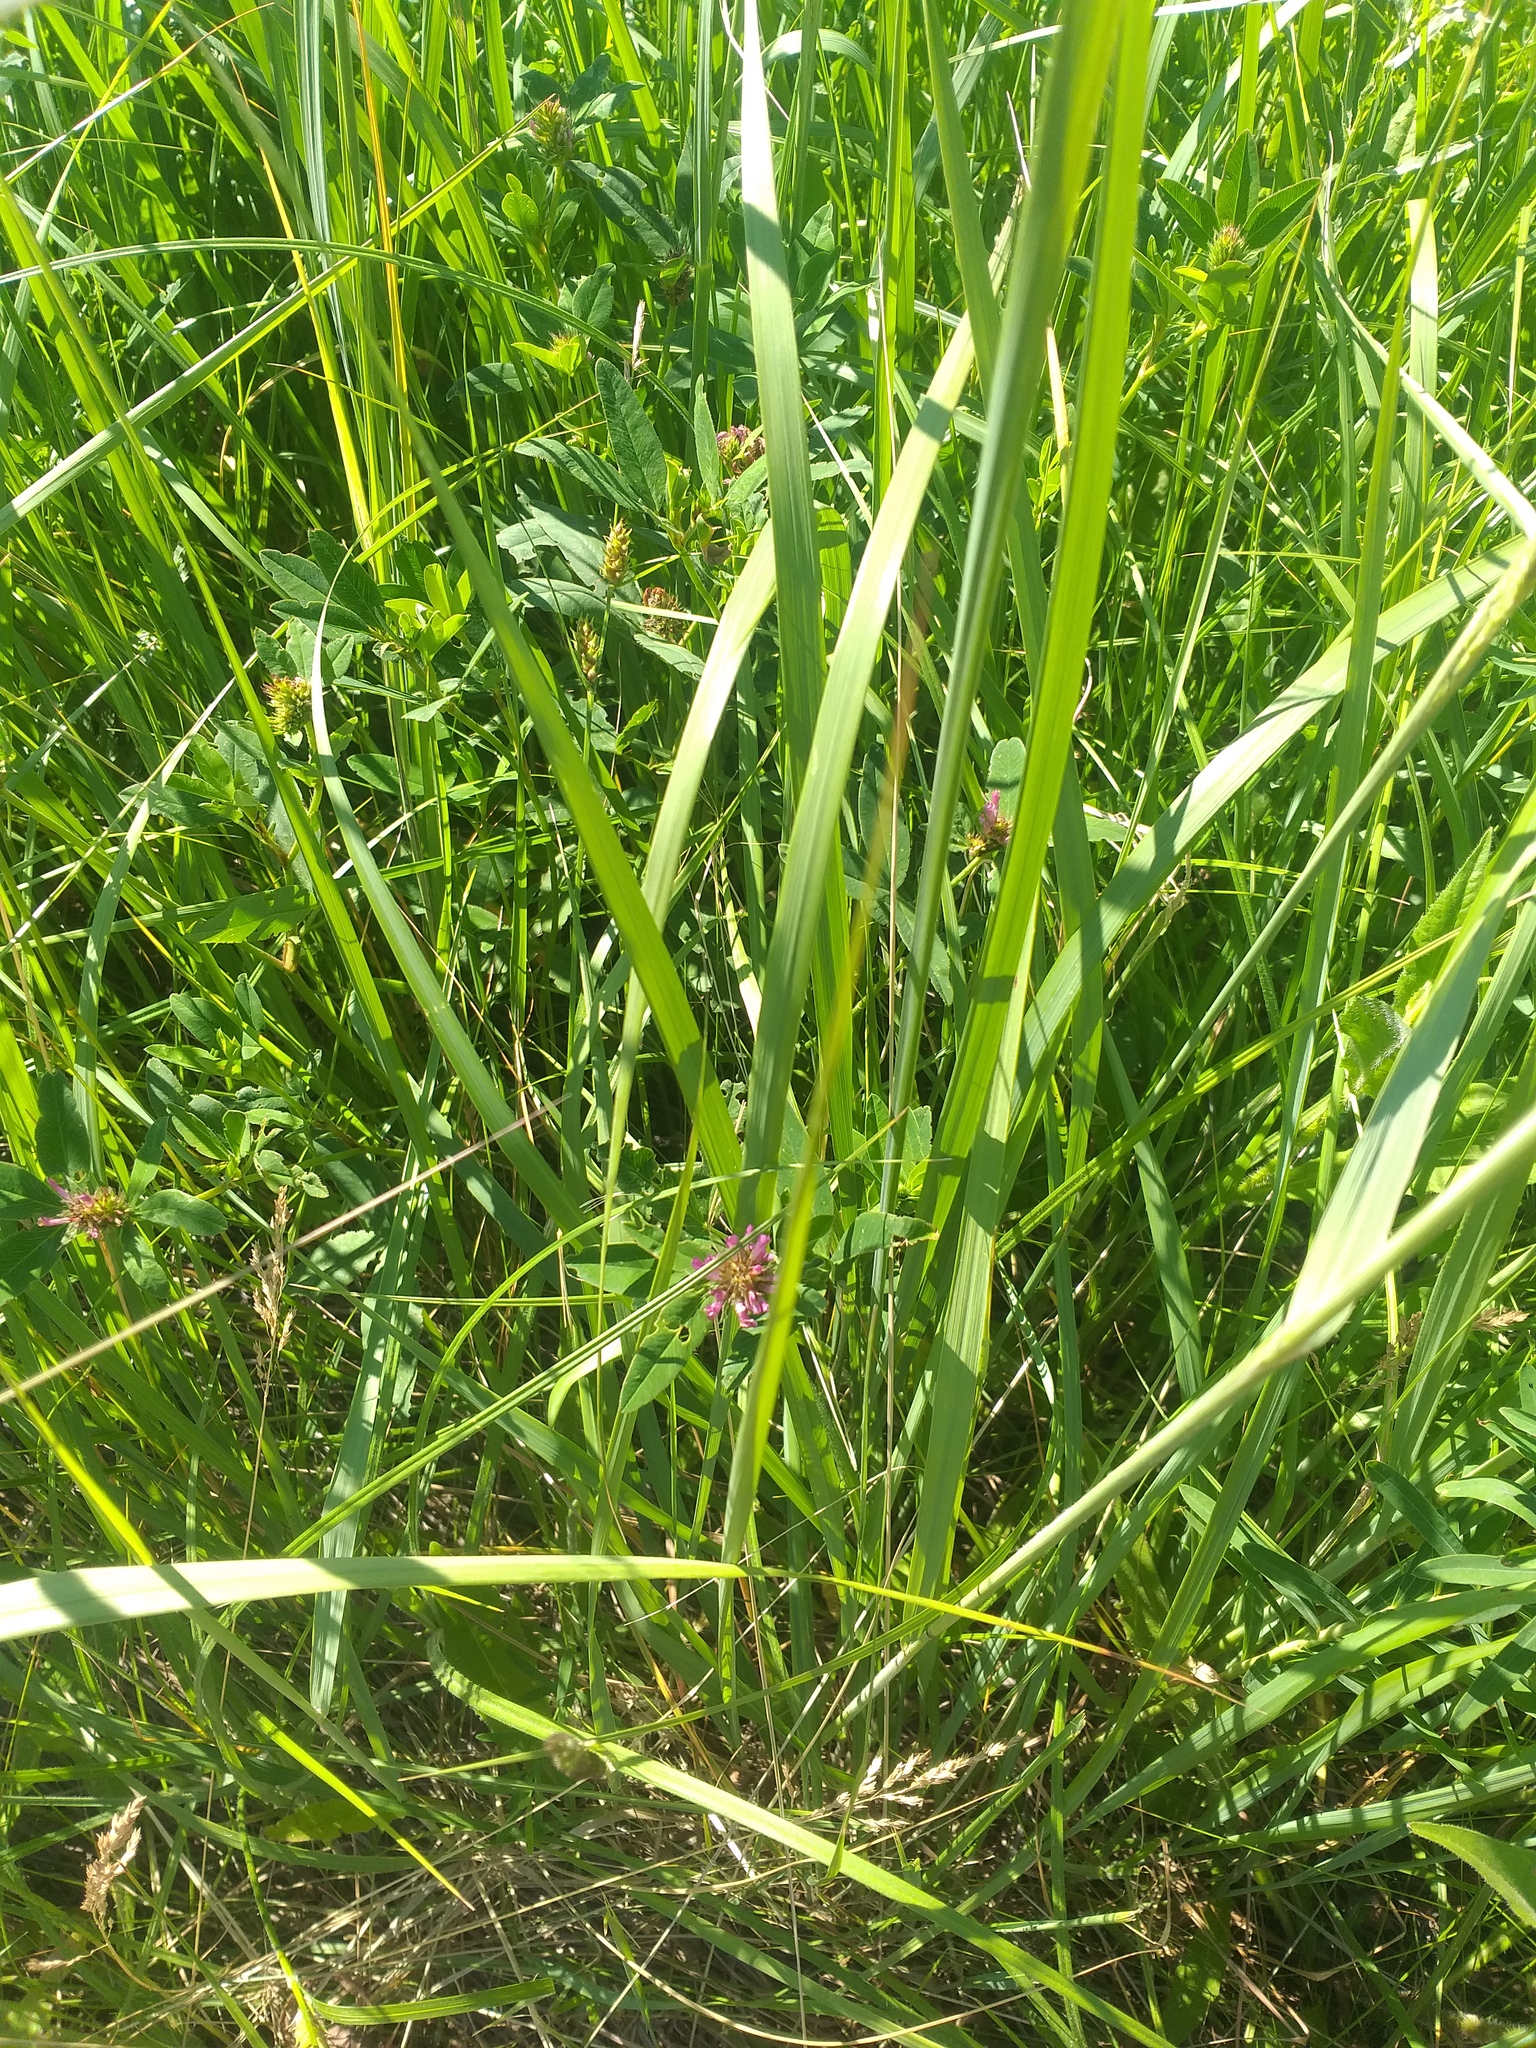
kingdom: Plantae
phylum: Tracheophyta
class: Magnoliopsida
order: Fabales
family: Fabaceae
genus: Trifolium
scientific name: Trifolium medium
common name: Zigzag clover
